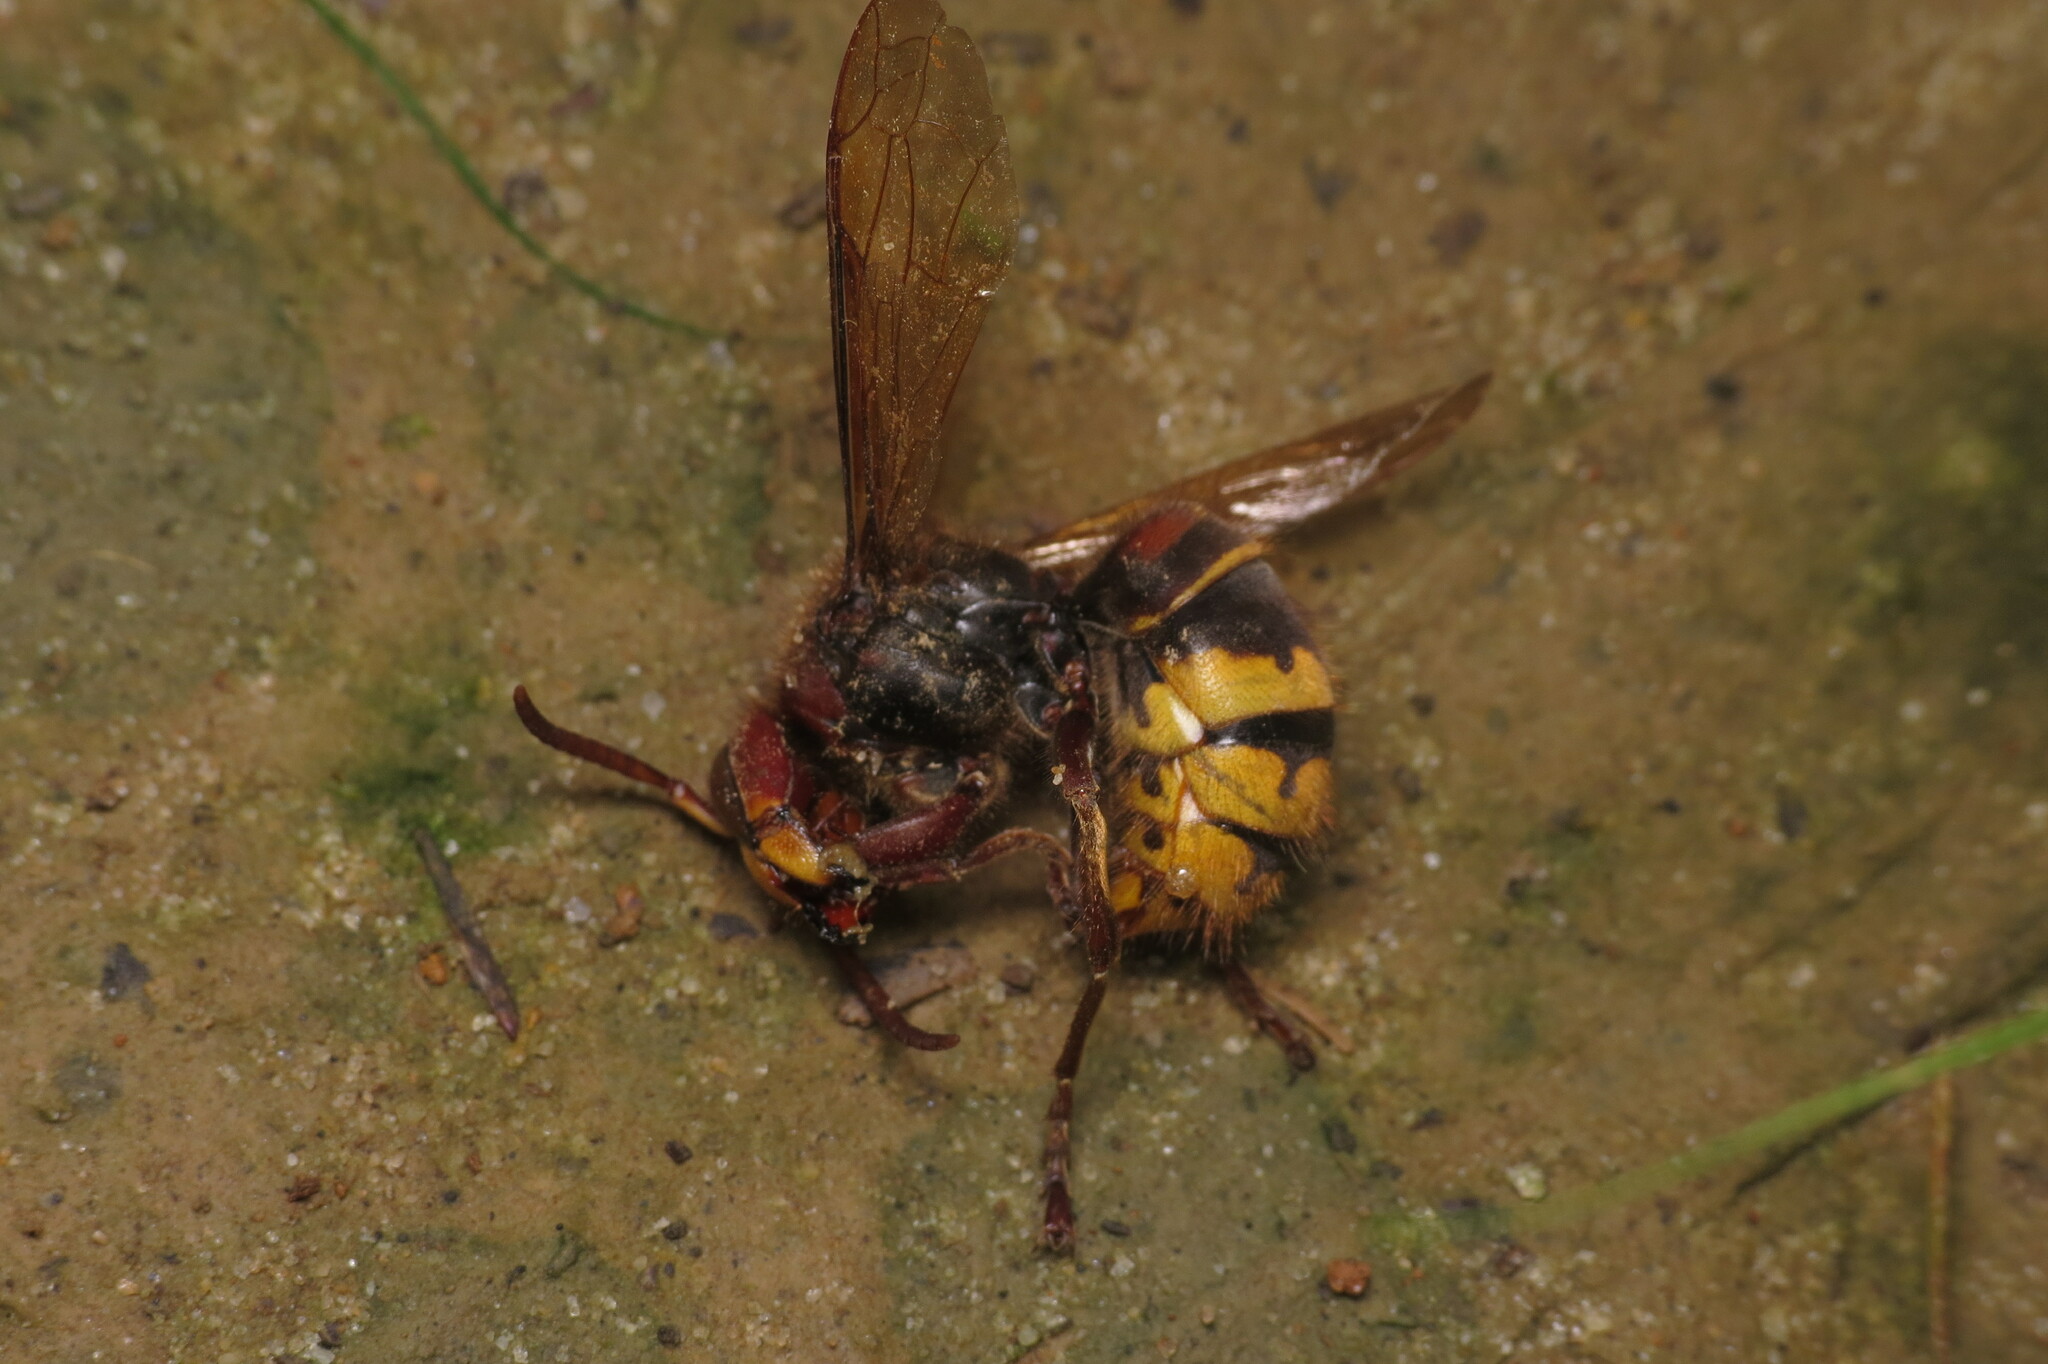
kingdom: Animalia
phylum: Arthropoda
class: Insecta
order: Hymenoptera
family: Vespidae
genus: Vespa
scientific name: Vespa crabro
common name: Hornet
